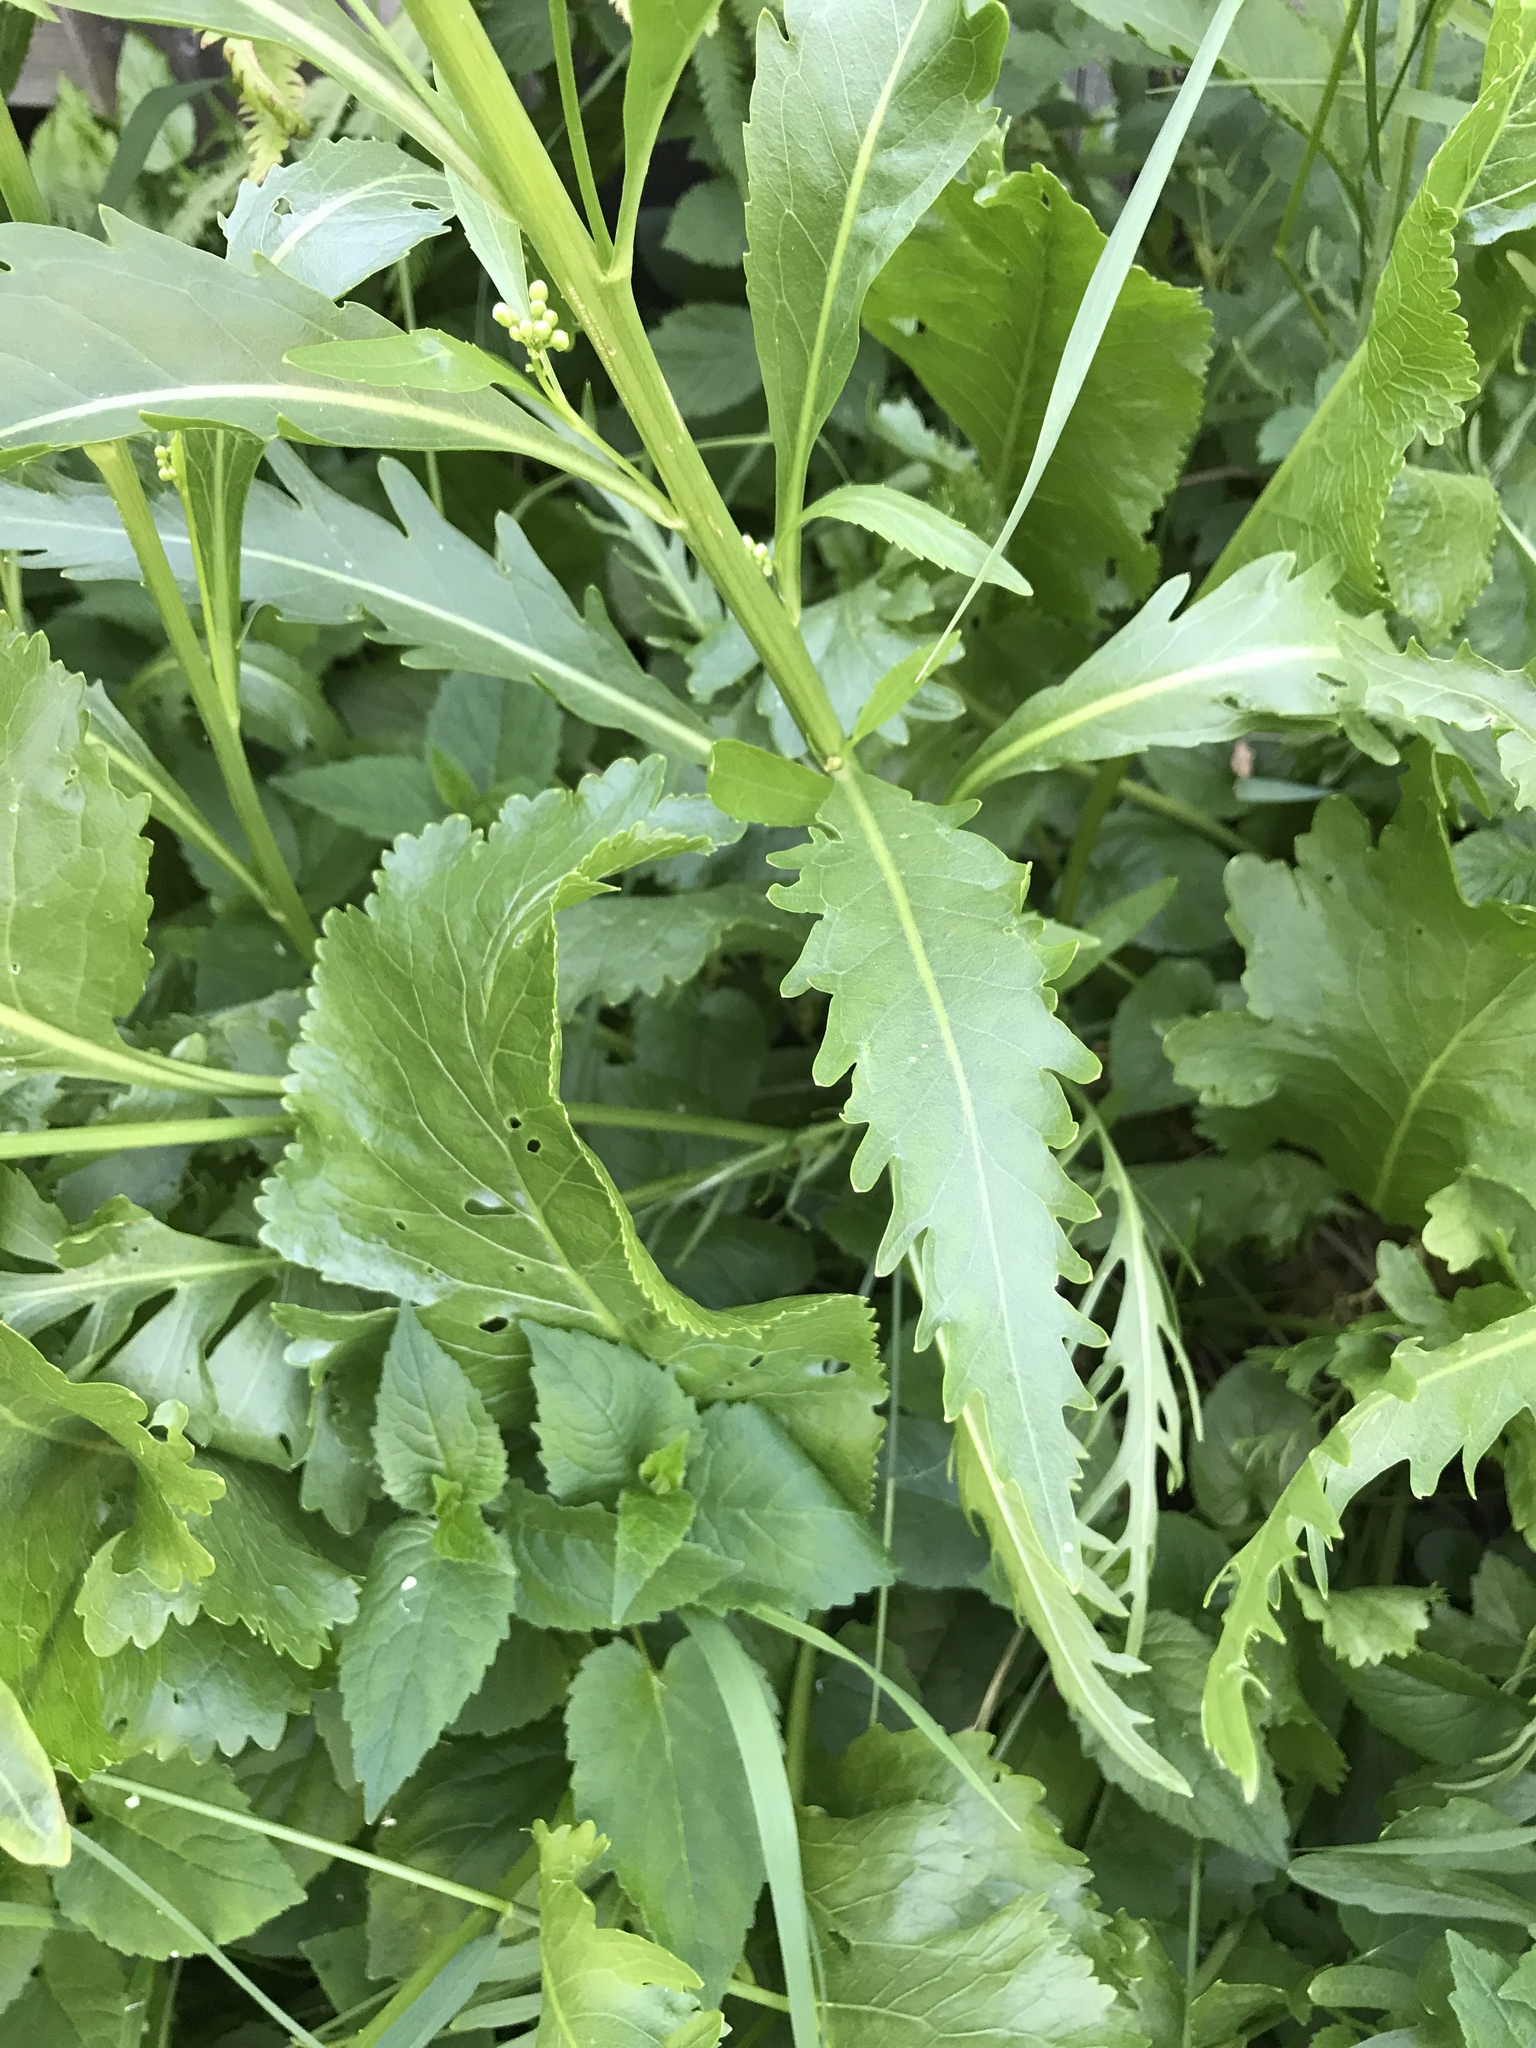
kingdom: Plantae
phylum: Tracheophyta
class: Magnoliopsida
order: Brassicales
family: Brassicaceae
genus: Armoracia
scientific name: Armoracia rusticana
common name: Horseradish
